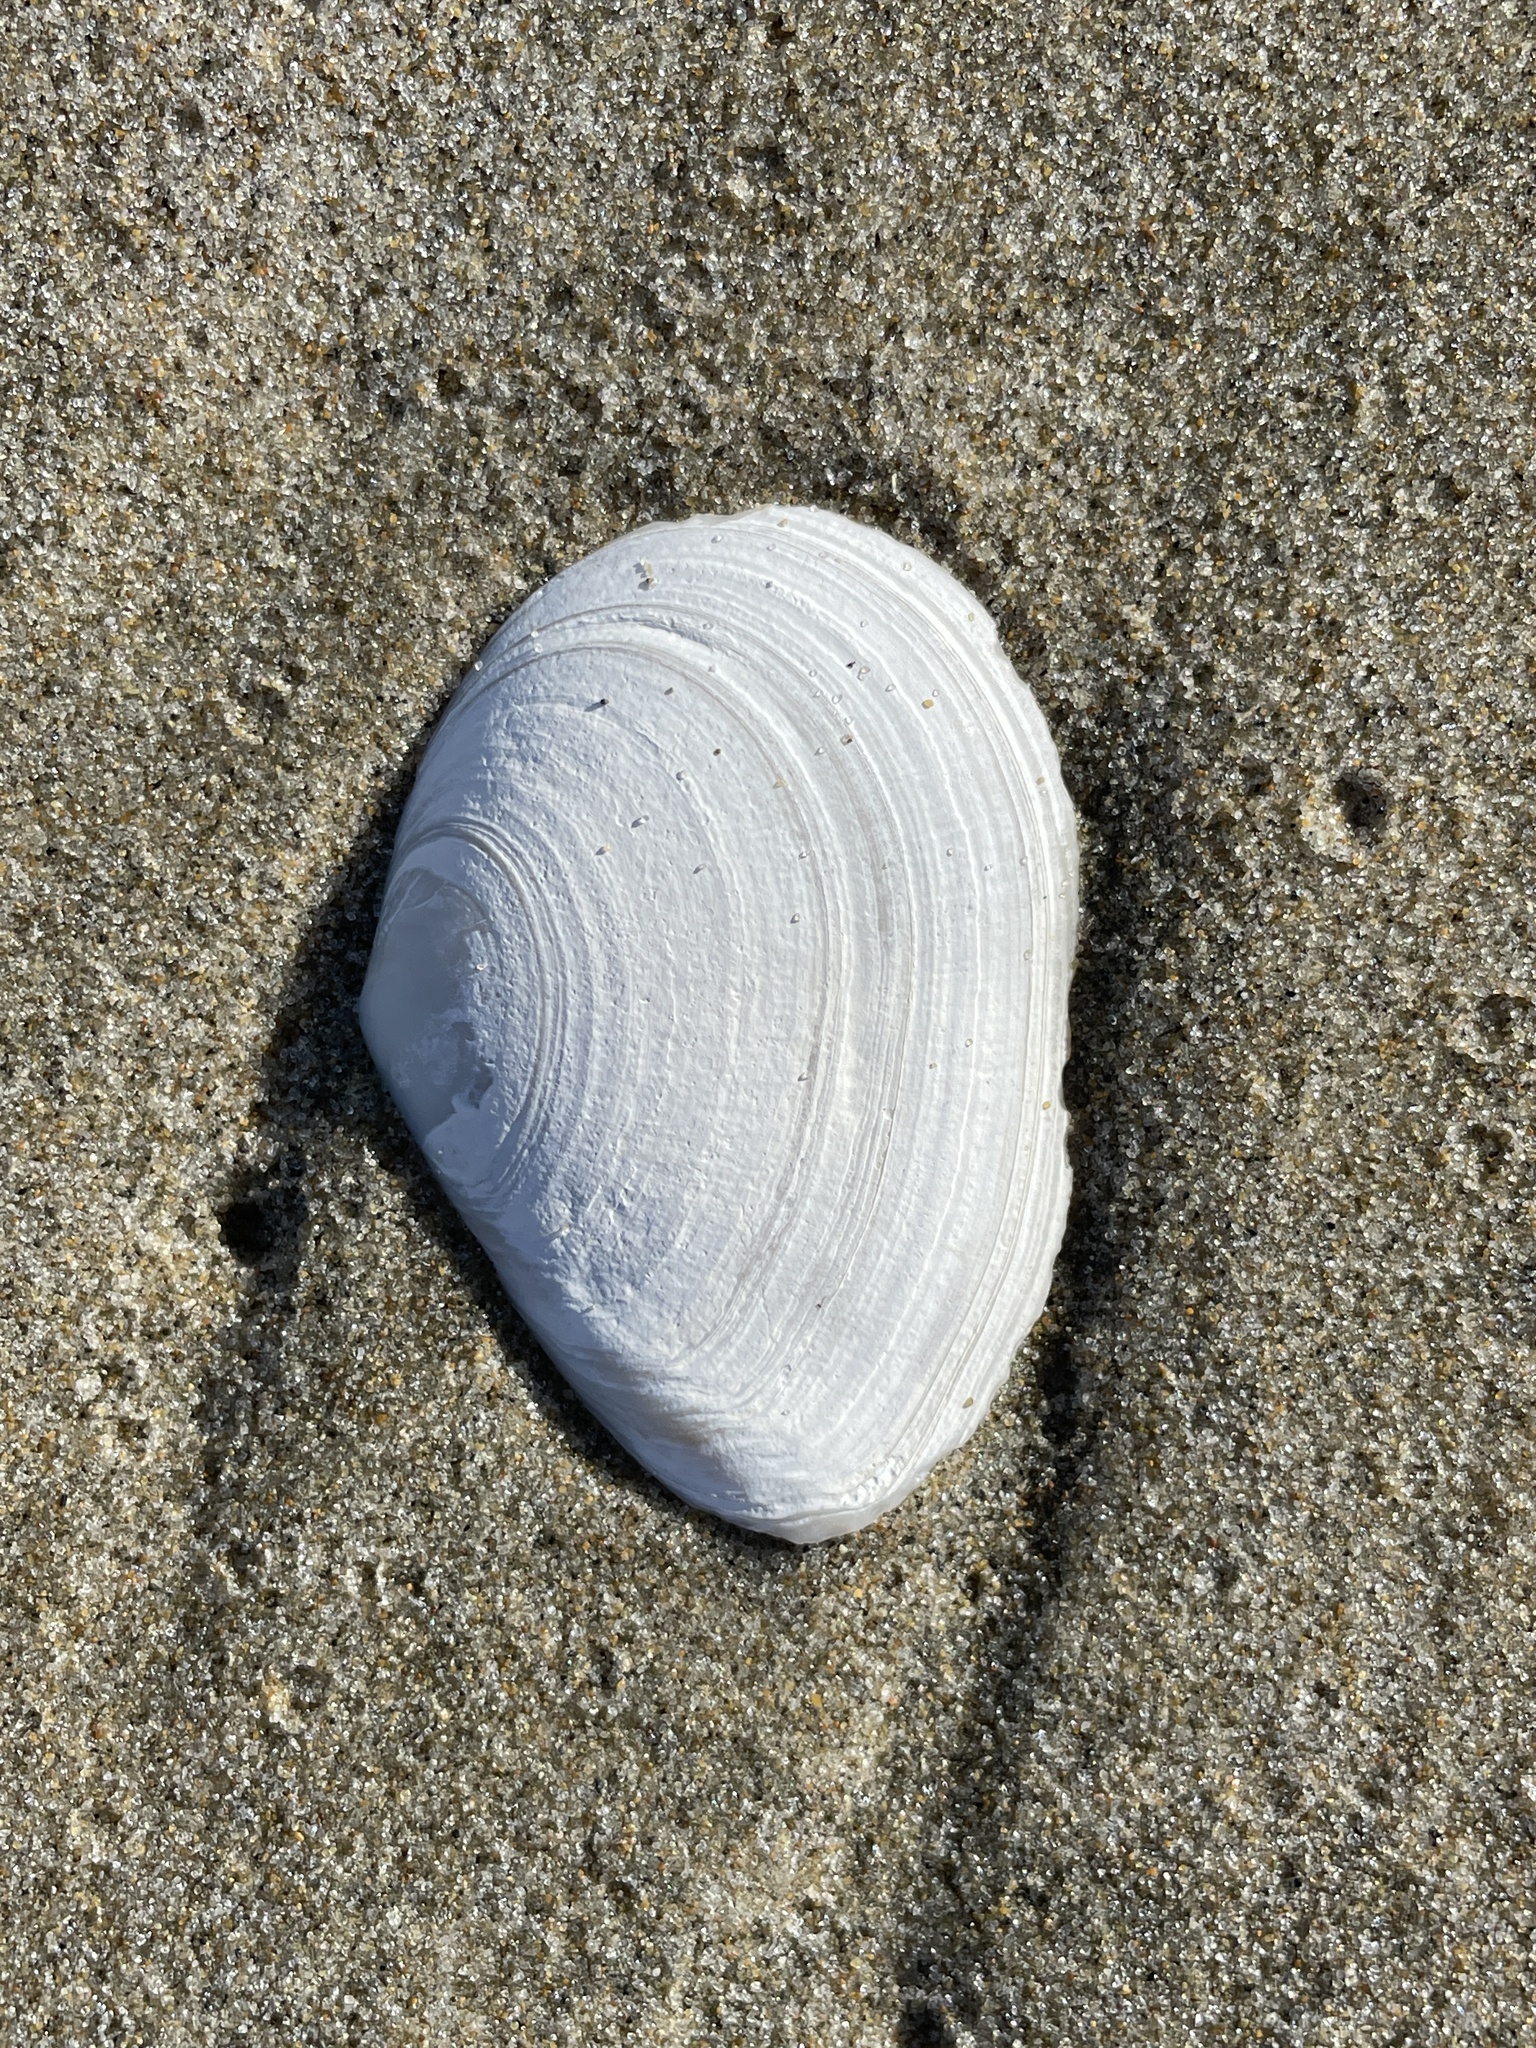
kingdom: Animalia
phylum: Mollusca
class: Bivalvia
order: Cardiida
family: Tellinidae
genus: Macoma
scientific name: Macoma nasuta
